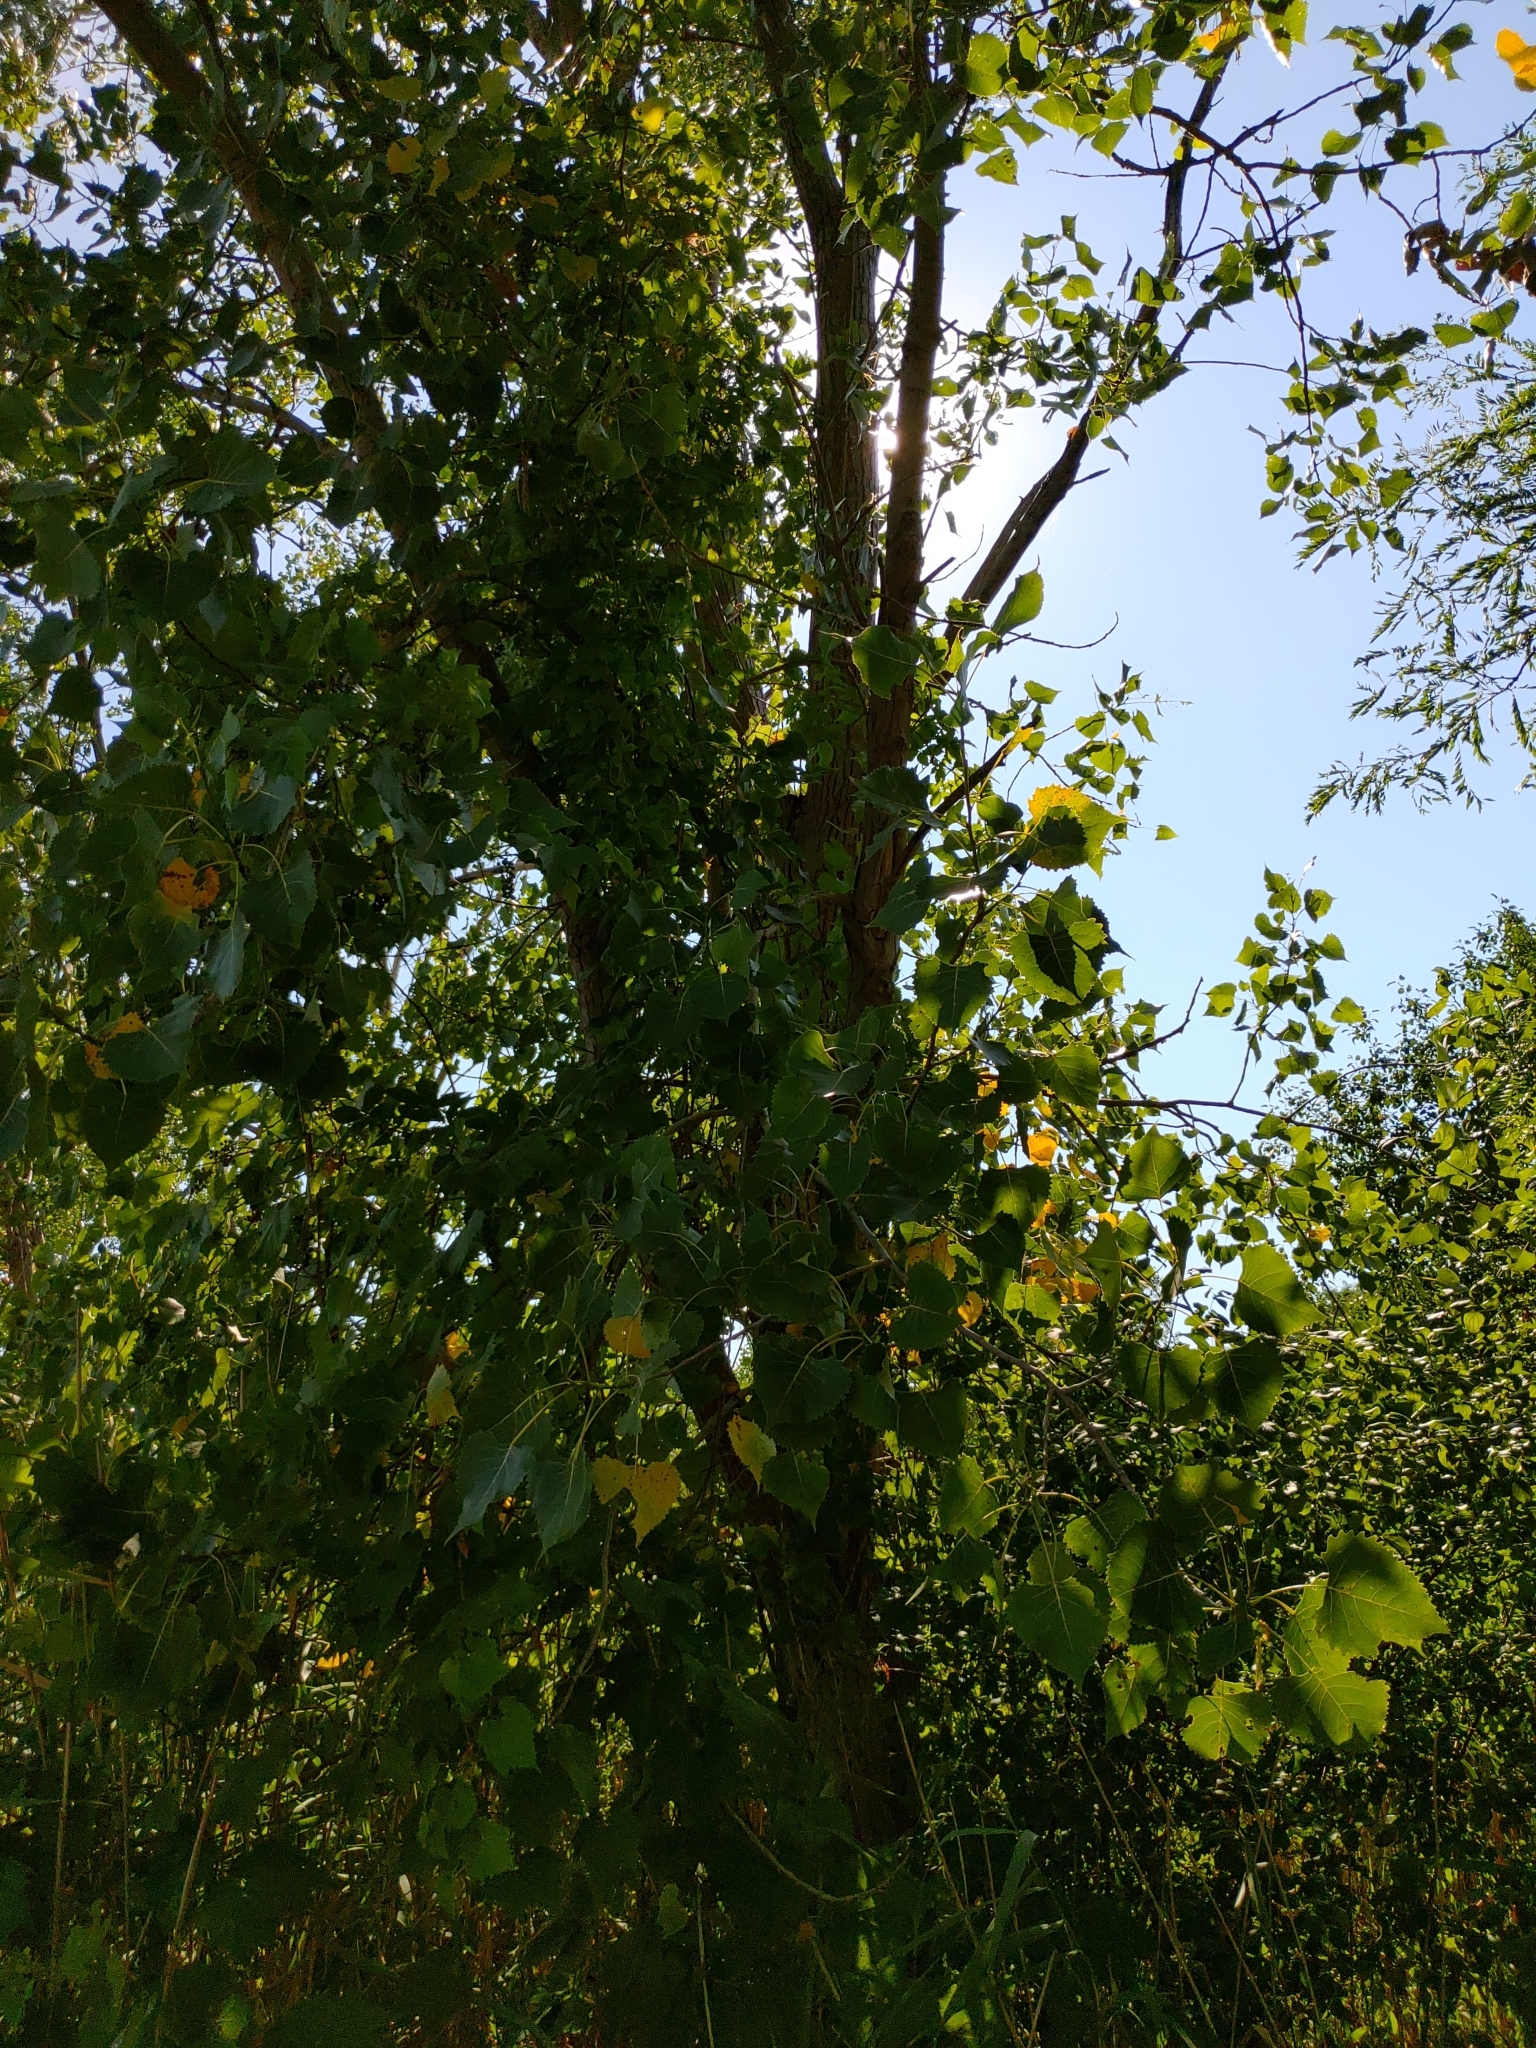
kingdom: Plantae
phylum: Tracheophyta
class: Magnoliopsida
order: Malpighiales
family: Salicaceae
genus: Populus
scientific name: Populus deltoides
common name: Eastern cottonwood
